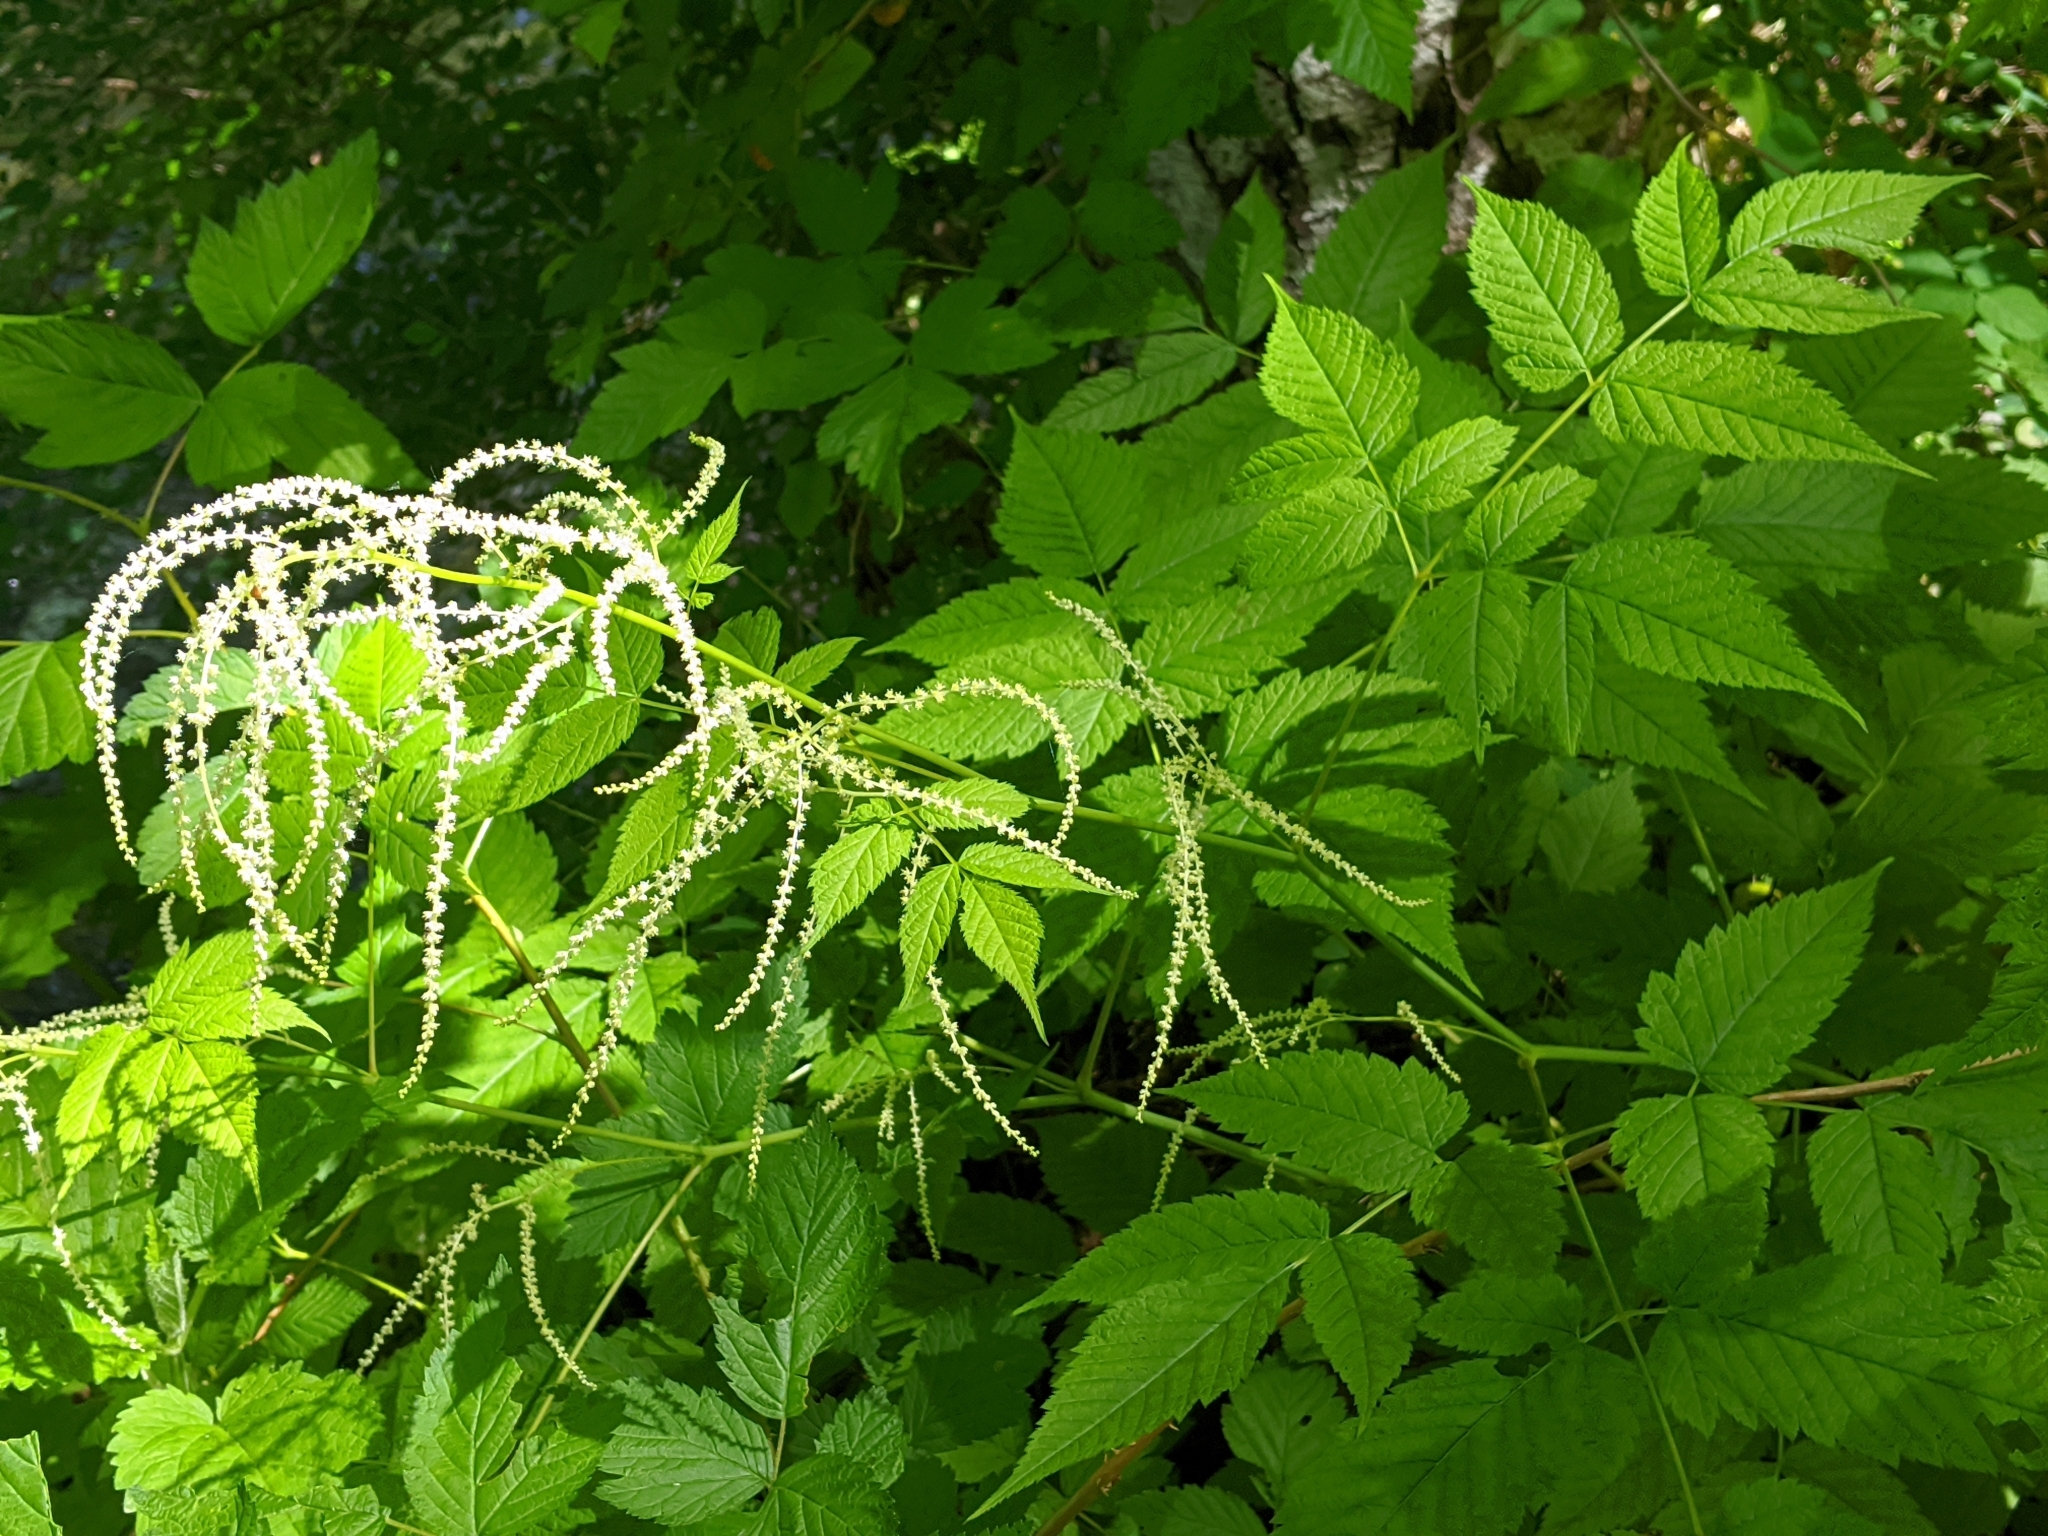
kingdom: Plantae
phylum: Tracheophyta
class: Magnoliopsida
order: Rosales
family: Rosaceae
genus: Aruncus
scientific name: Aruncus dioicus
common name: Buck's-beard
